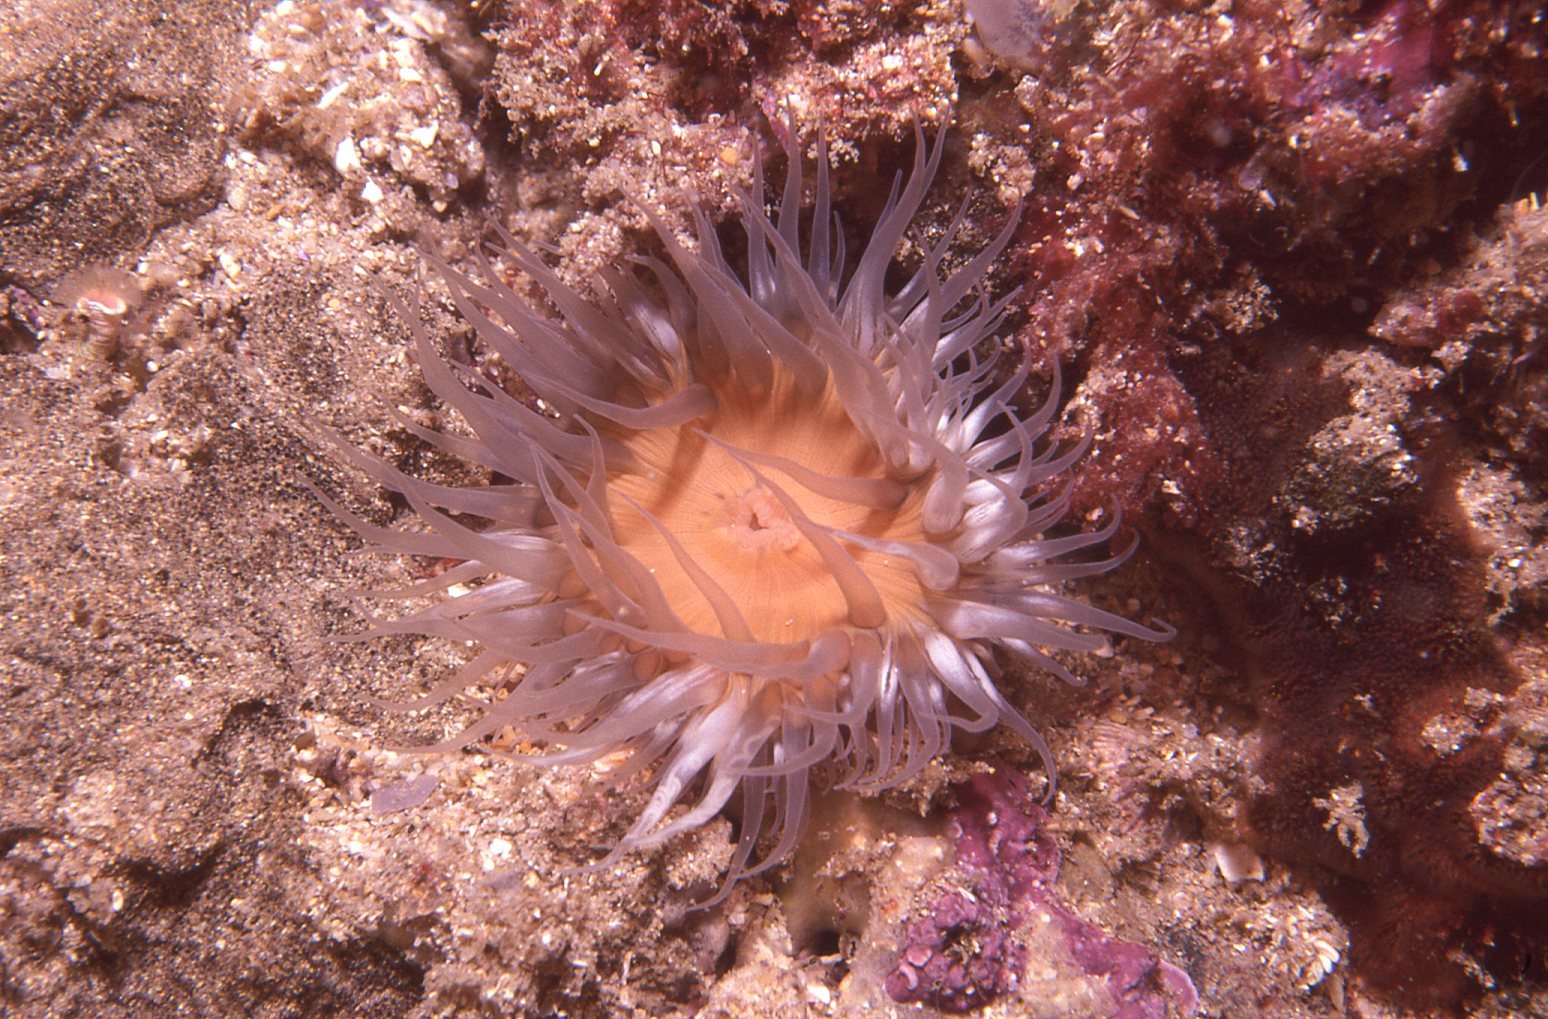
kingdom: Animalia
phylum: Cnidaria
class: Anthozoa
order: Actiniaria
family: Sagartiidae
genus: Anthothoe
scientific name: Anthothoe albocincta
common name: Orange striped anemone
